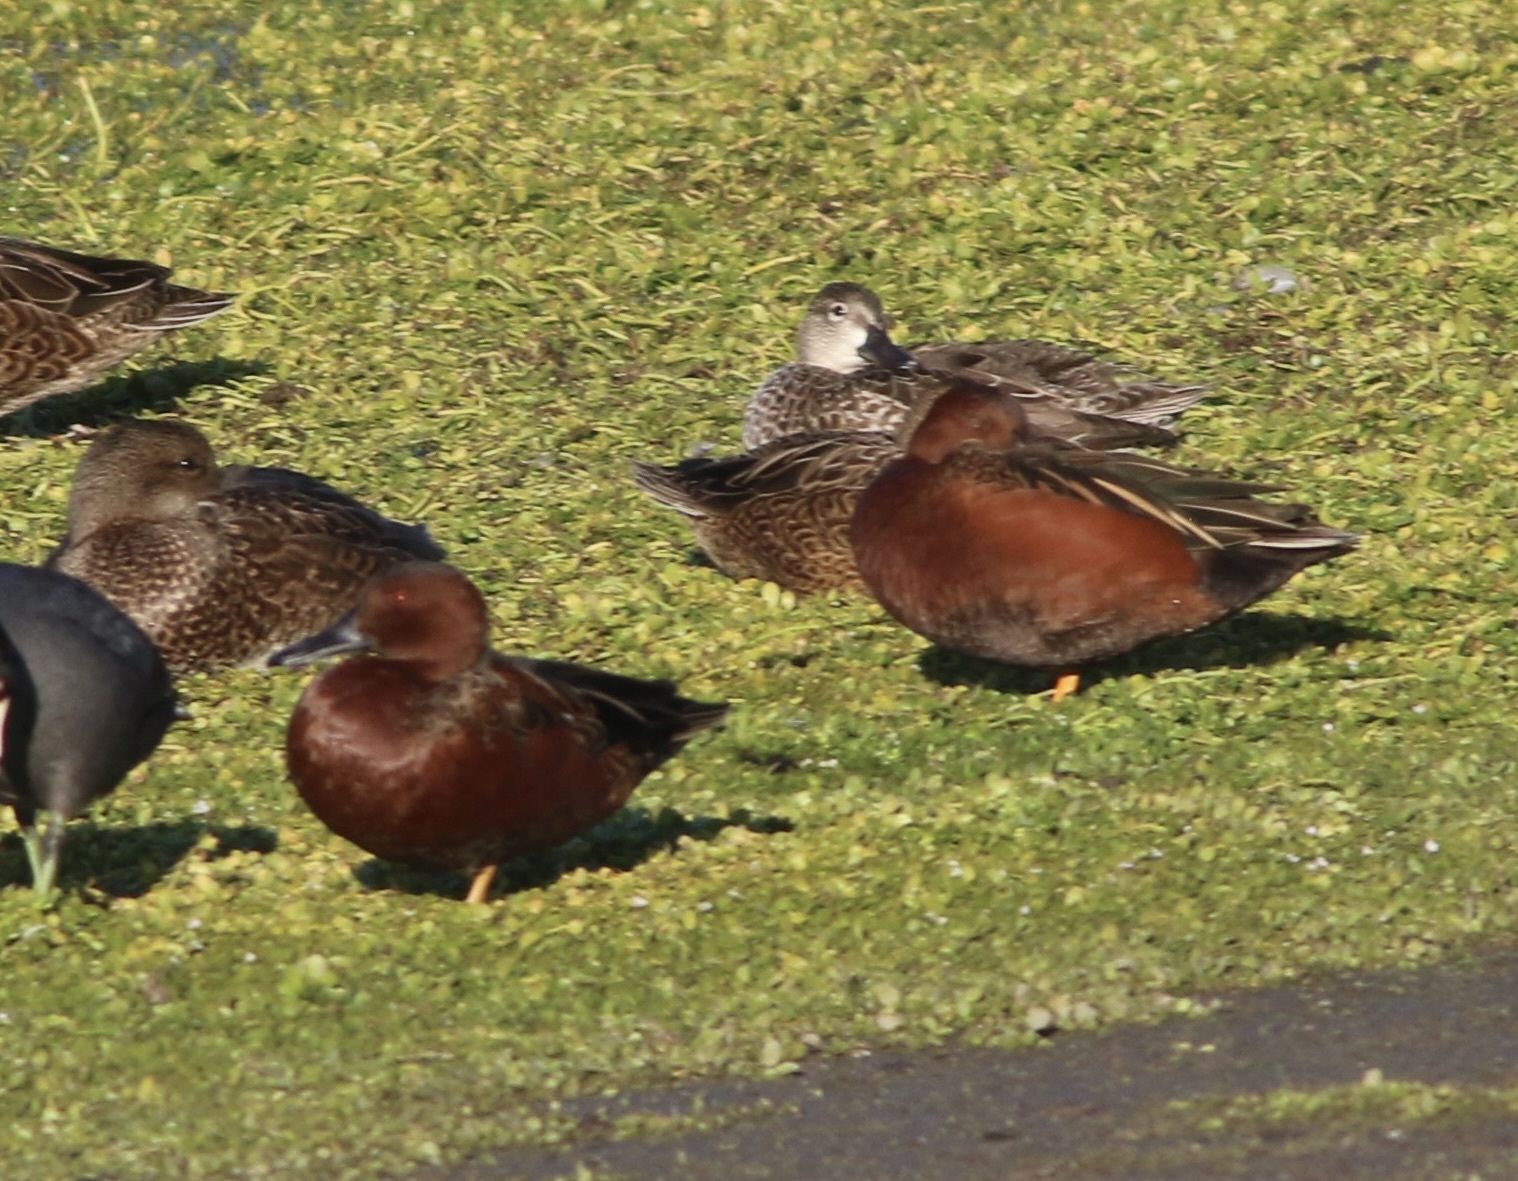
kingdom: Animalia
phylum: Chordata
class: Aves
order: Anseriformes
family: Anatidae
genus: Spatula
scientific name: Spatula cyanoptera
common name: Cinnamon teal
